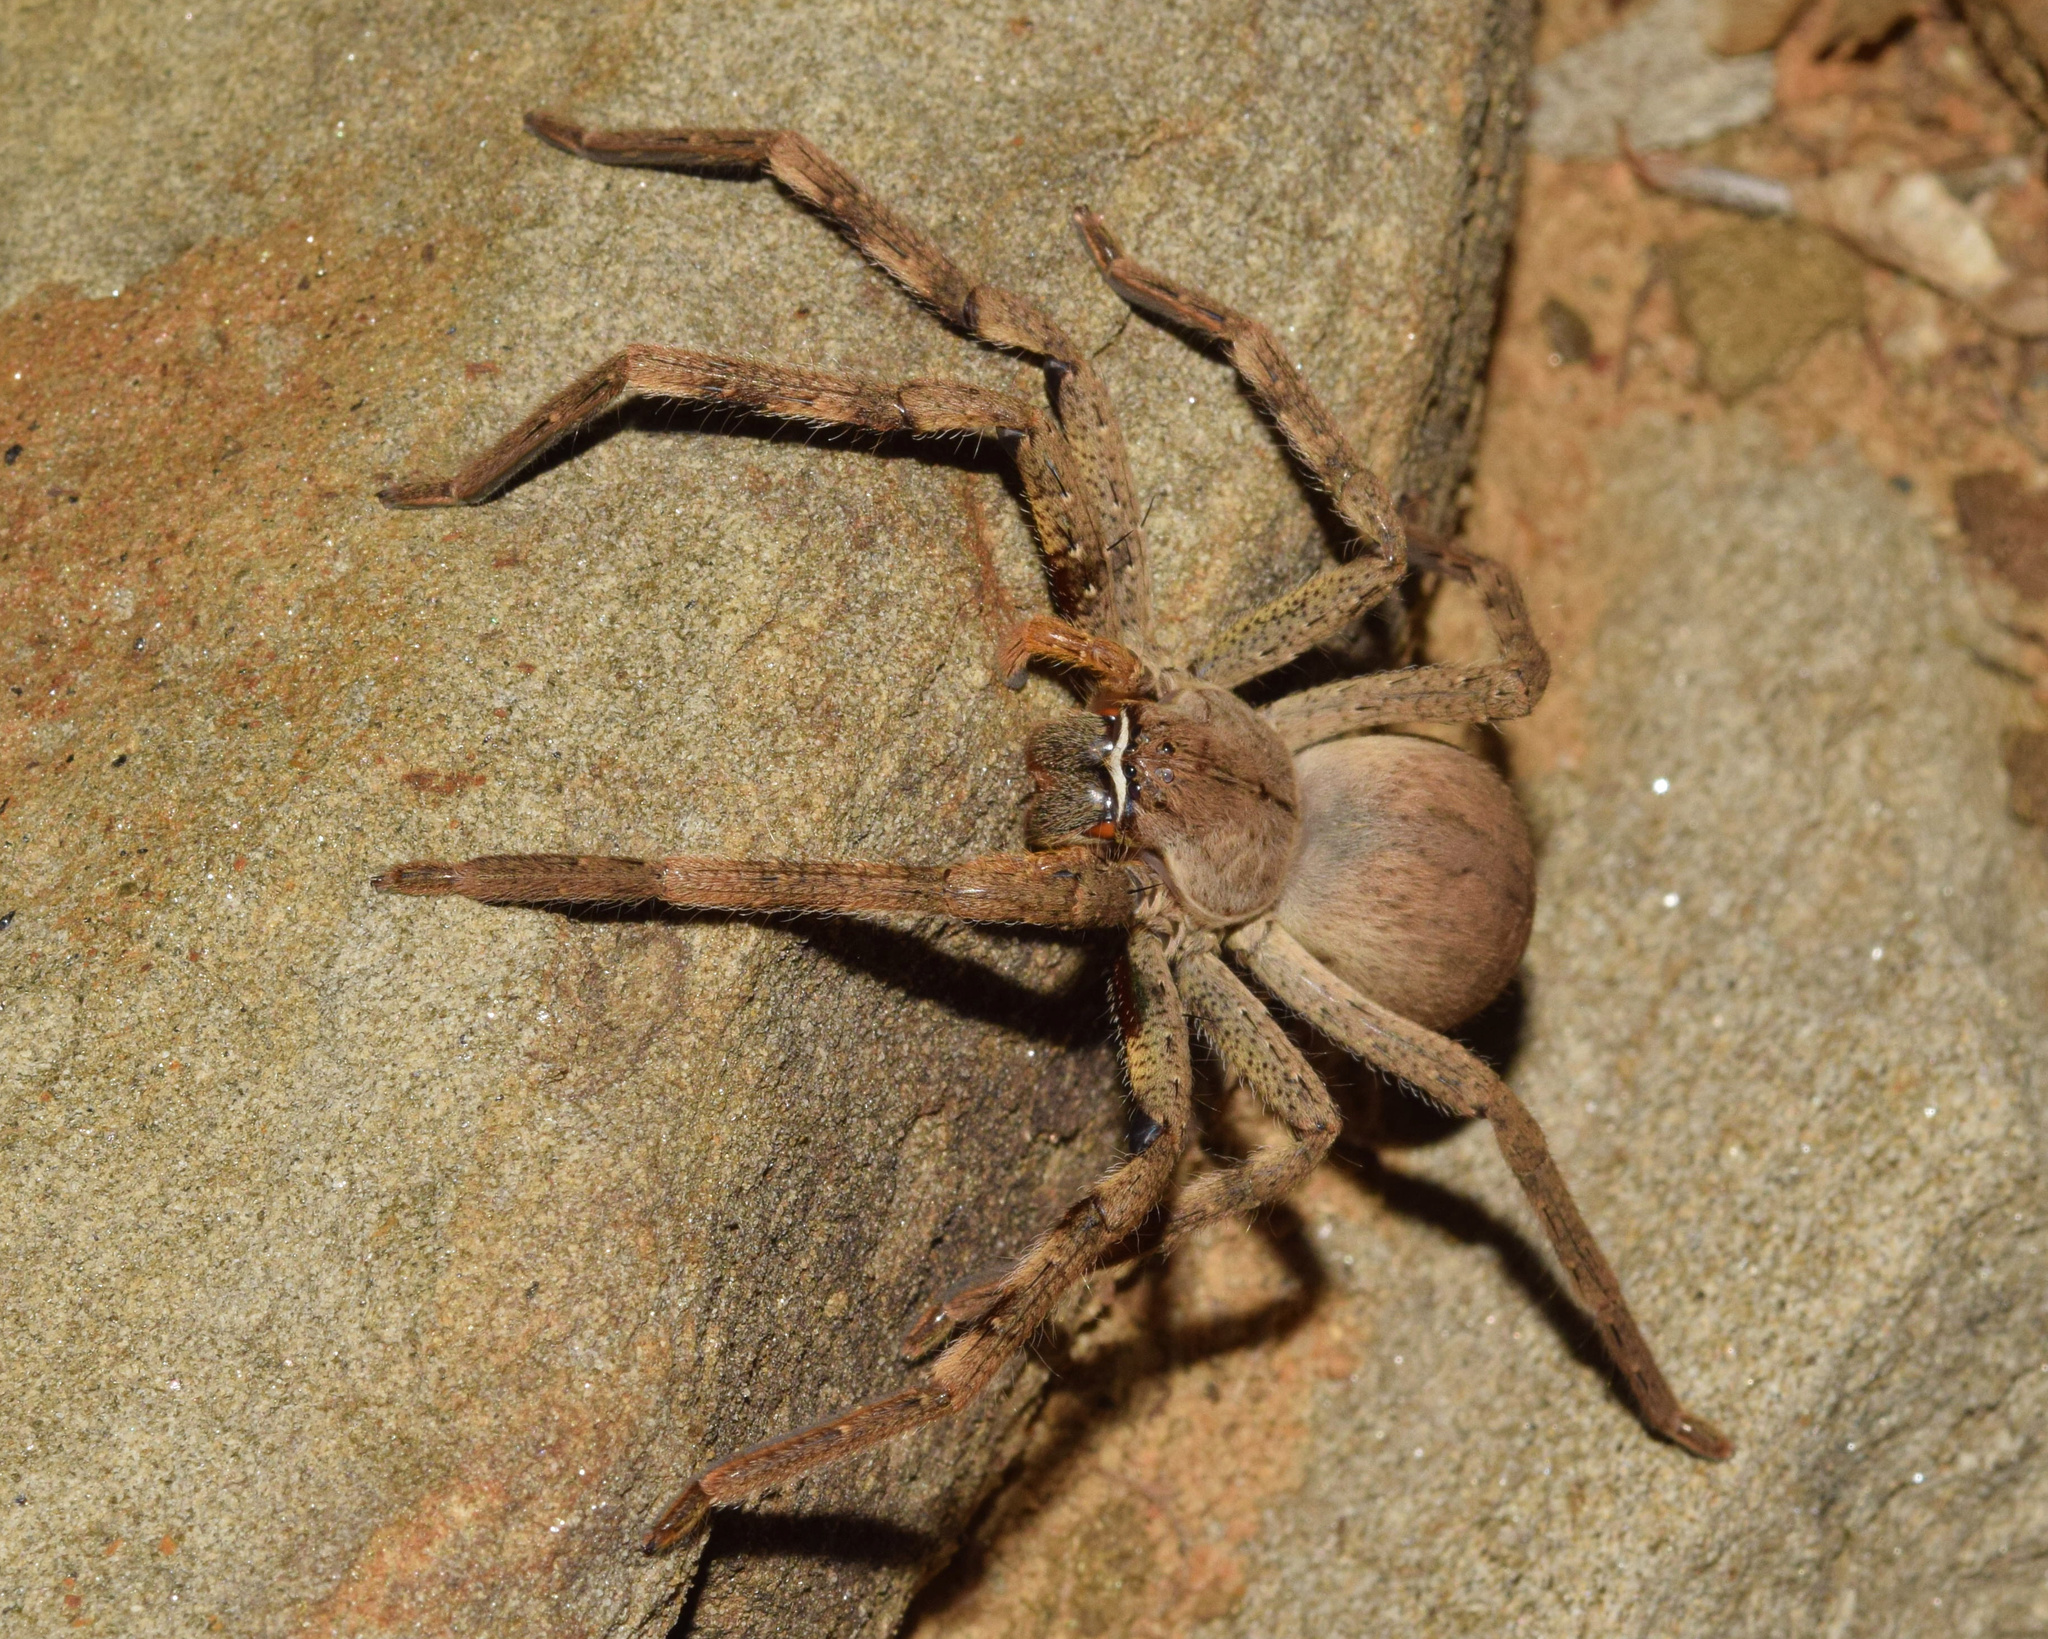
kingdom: Animalia
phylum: Arthropoda
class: Arachnida
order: Araneae
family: Sparassidae
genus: Palystes
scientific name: Palystes superciliosus
